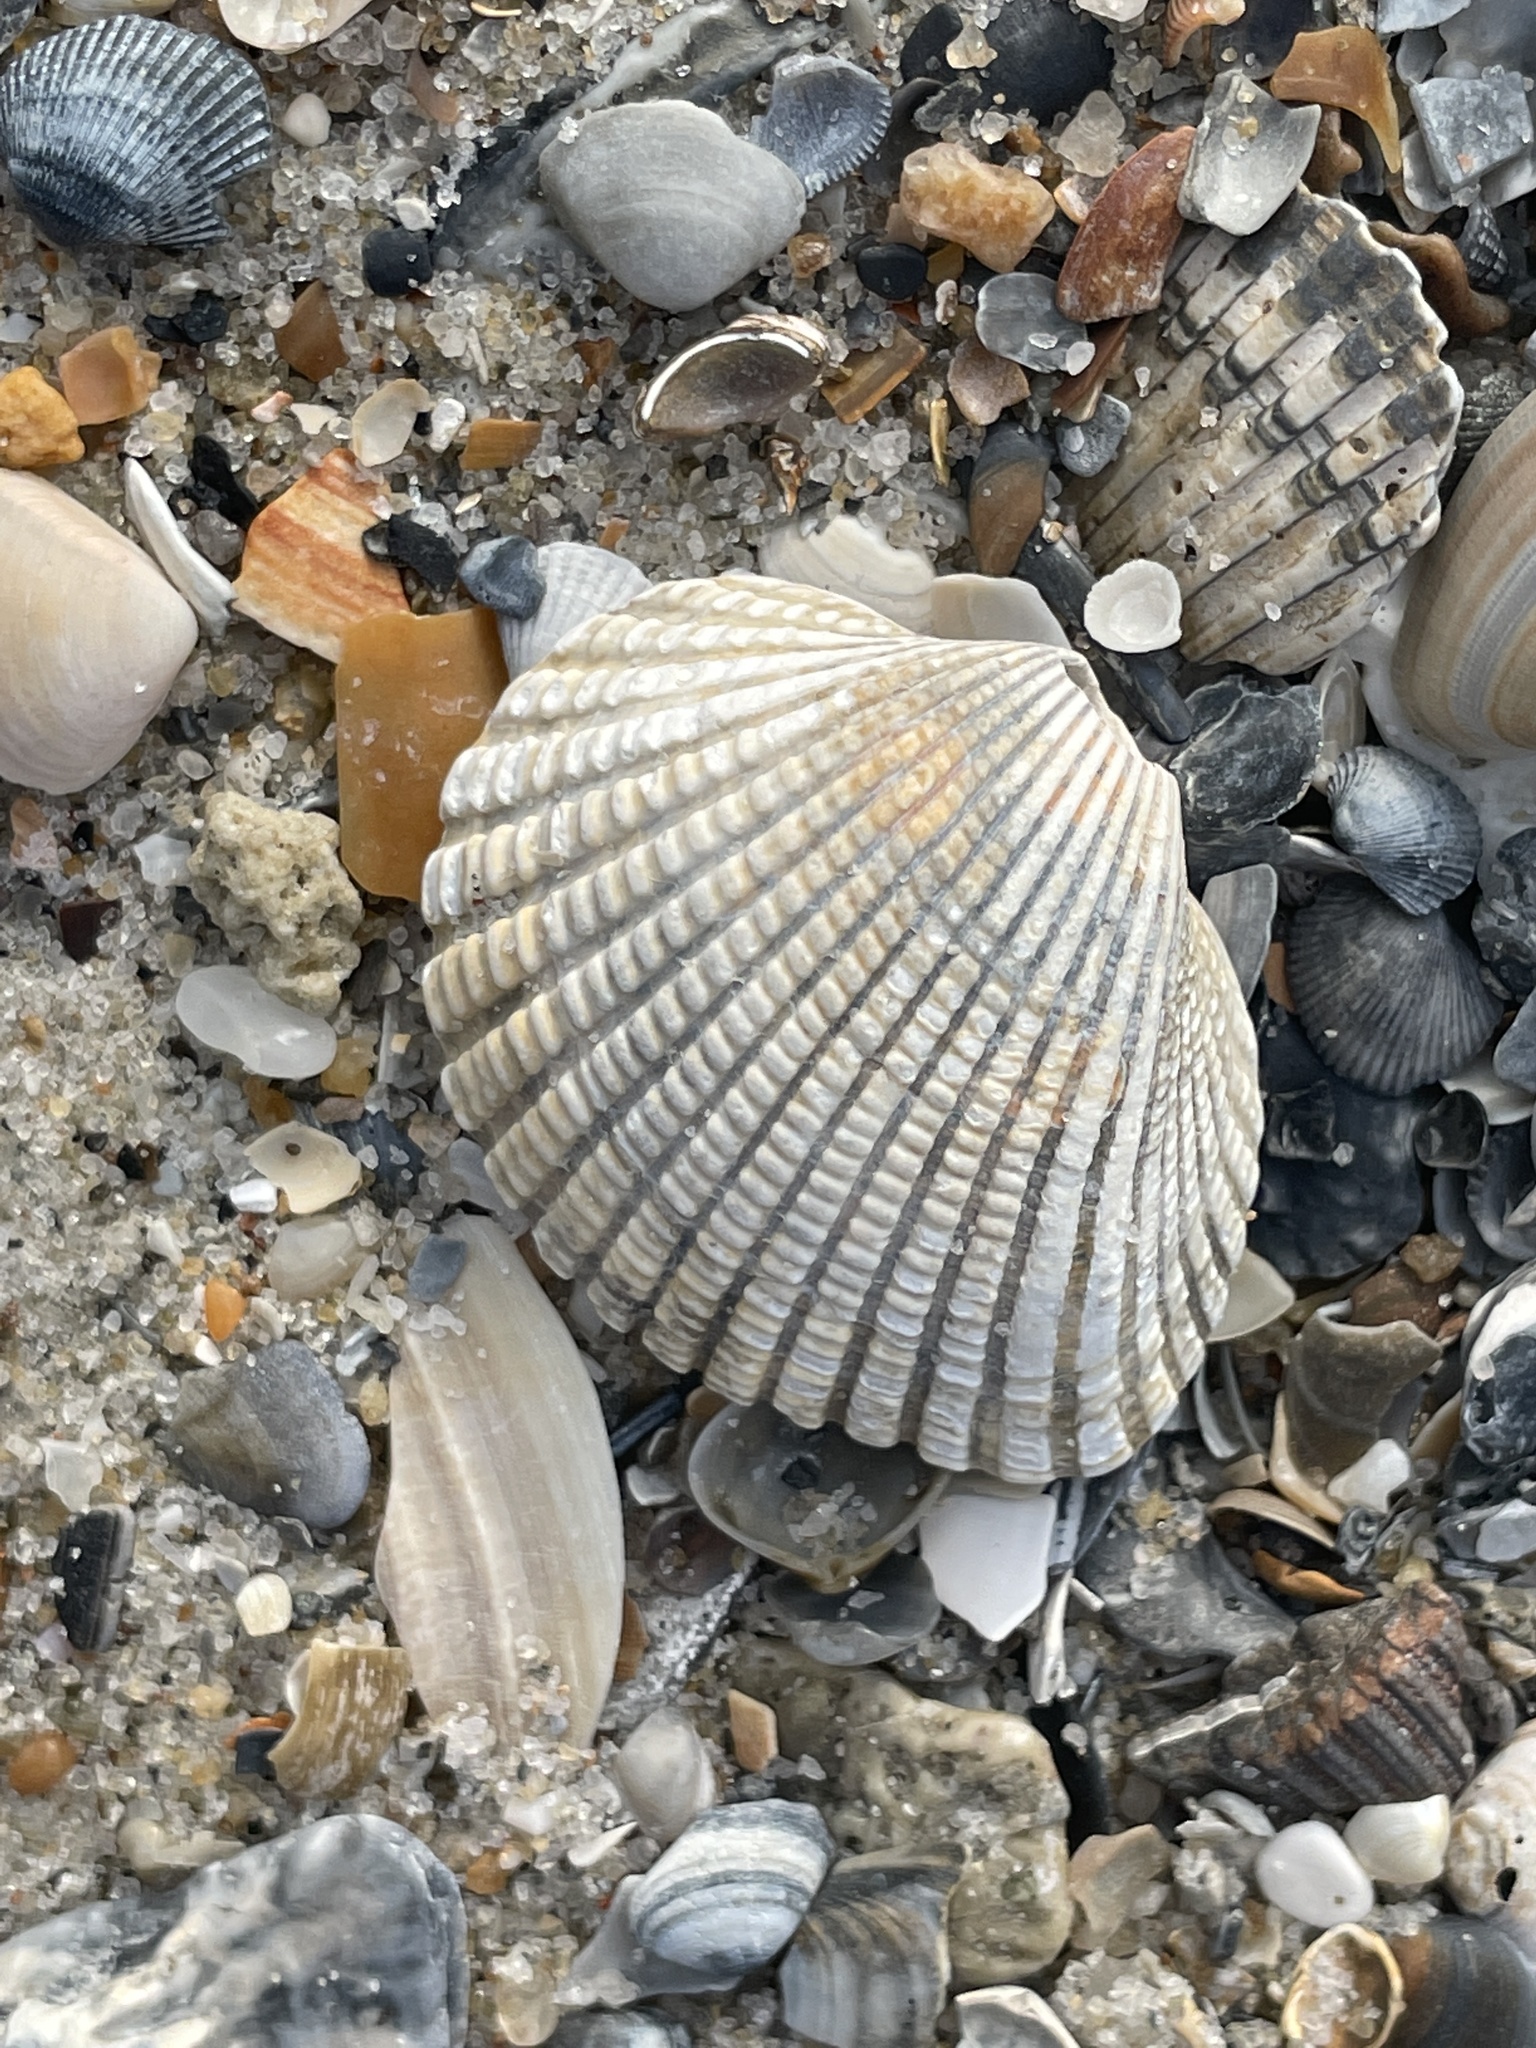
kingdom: Animalia
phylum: Mollusca
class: Bivalvia
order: Arcida
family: Arcidae
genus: Anadara
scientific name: Anadara brasiliana
